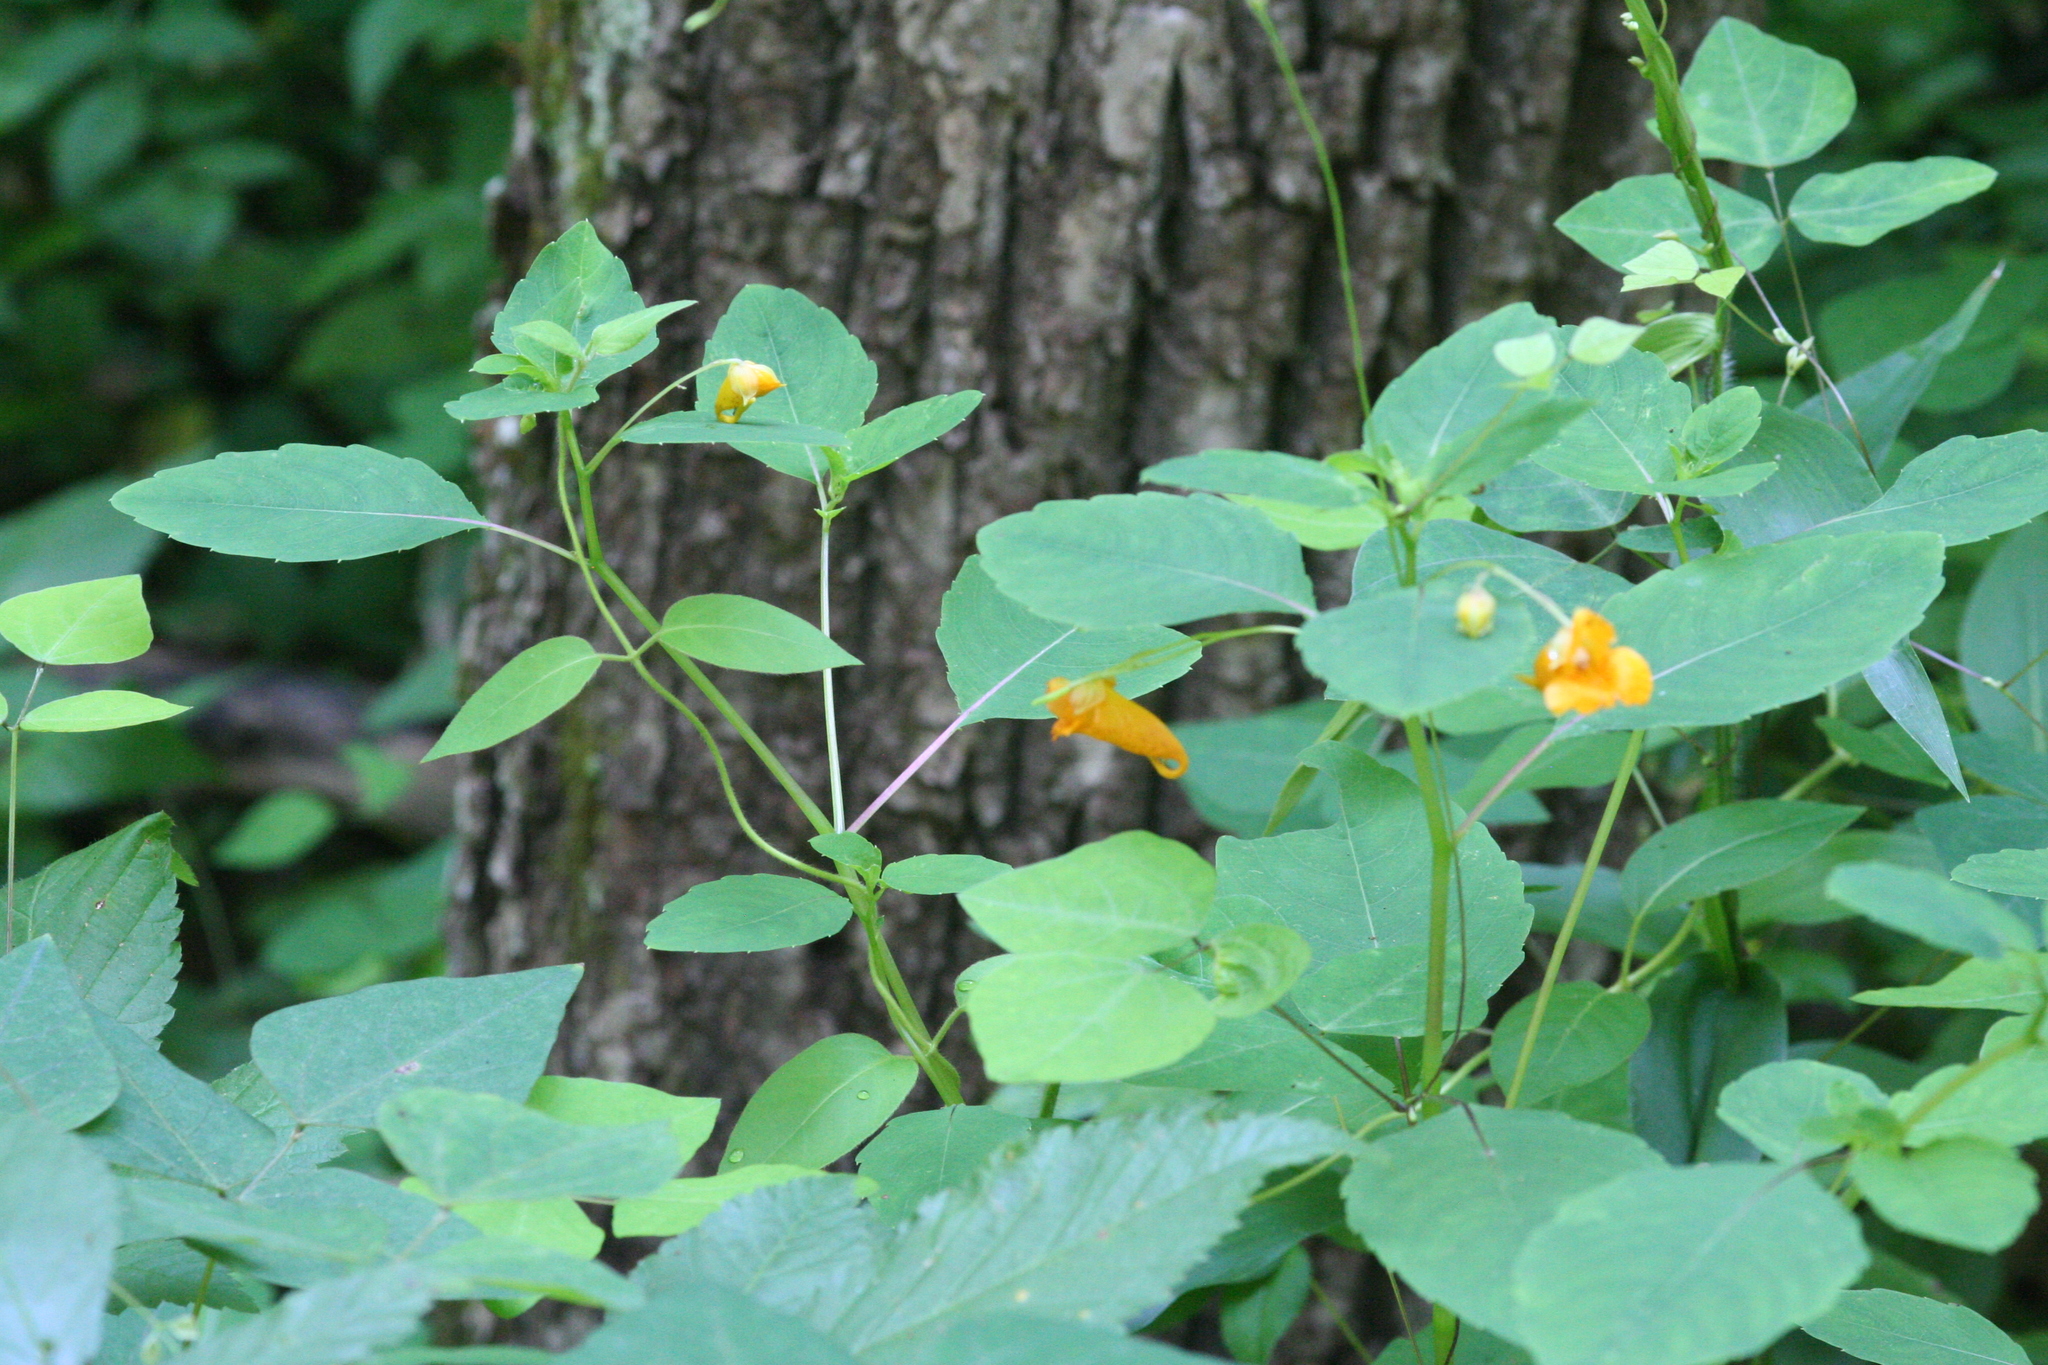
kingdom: Plantae
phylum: Tracheophyta
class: Magnoliopsida
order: Ericales
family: Balsaminaceae
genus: Impatiens
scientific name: Impatiens capensis
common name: Orange balsam
